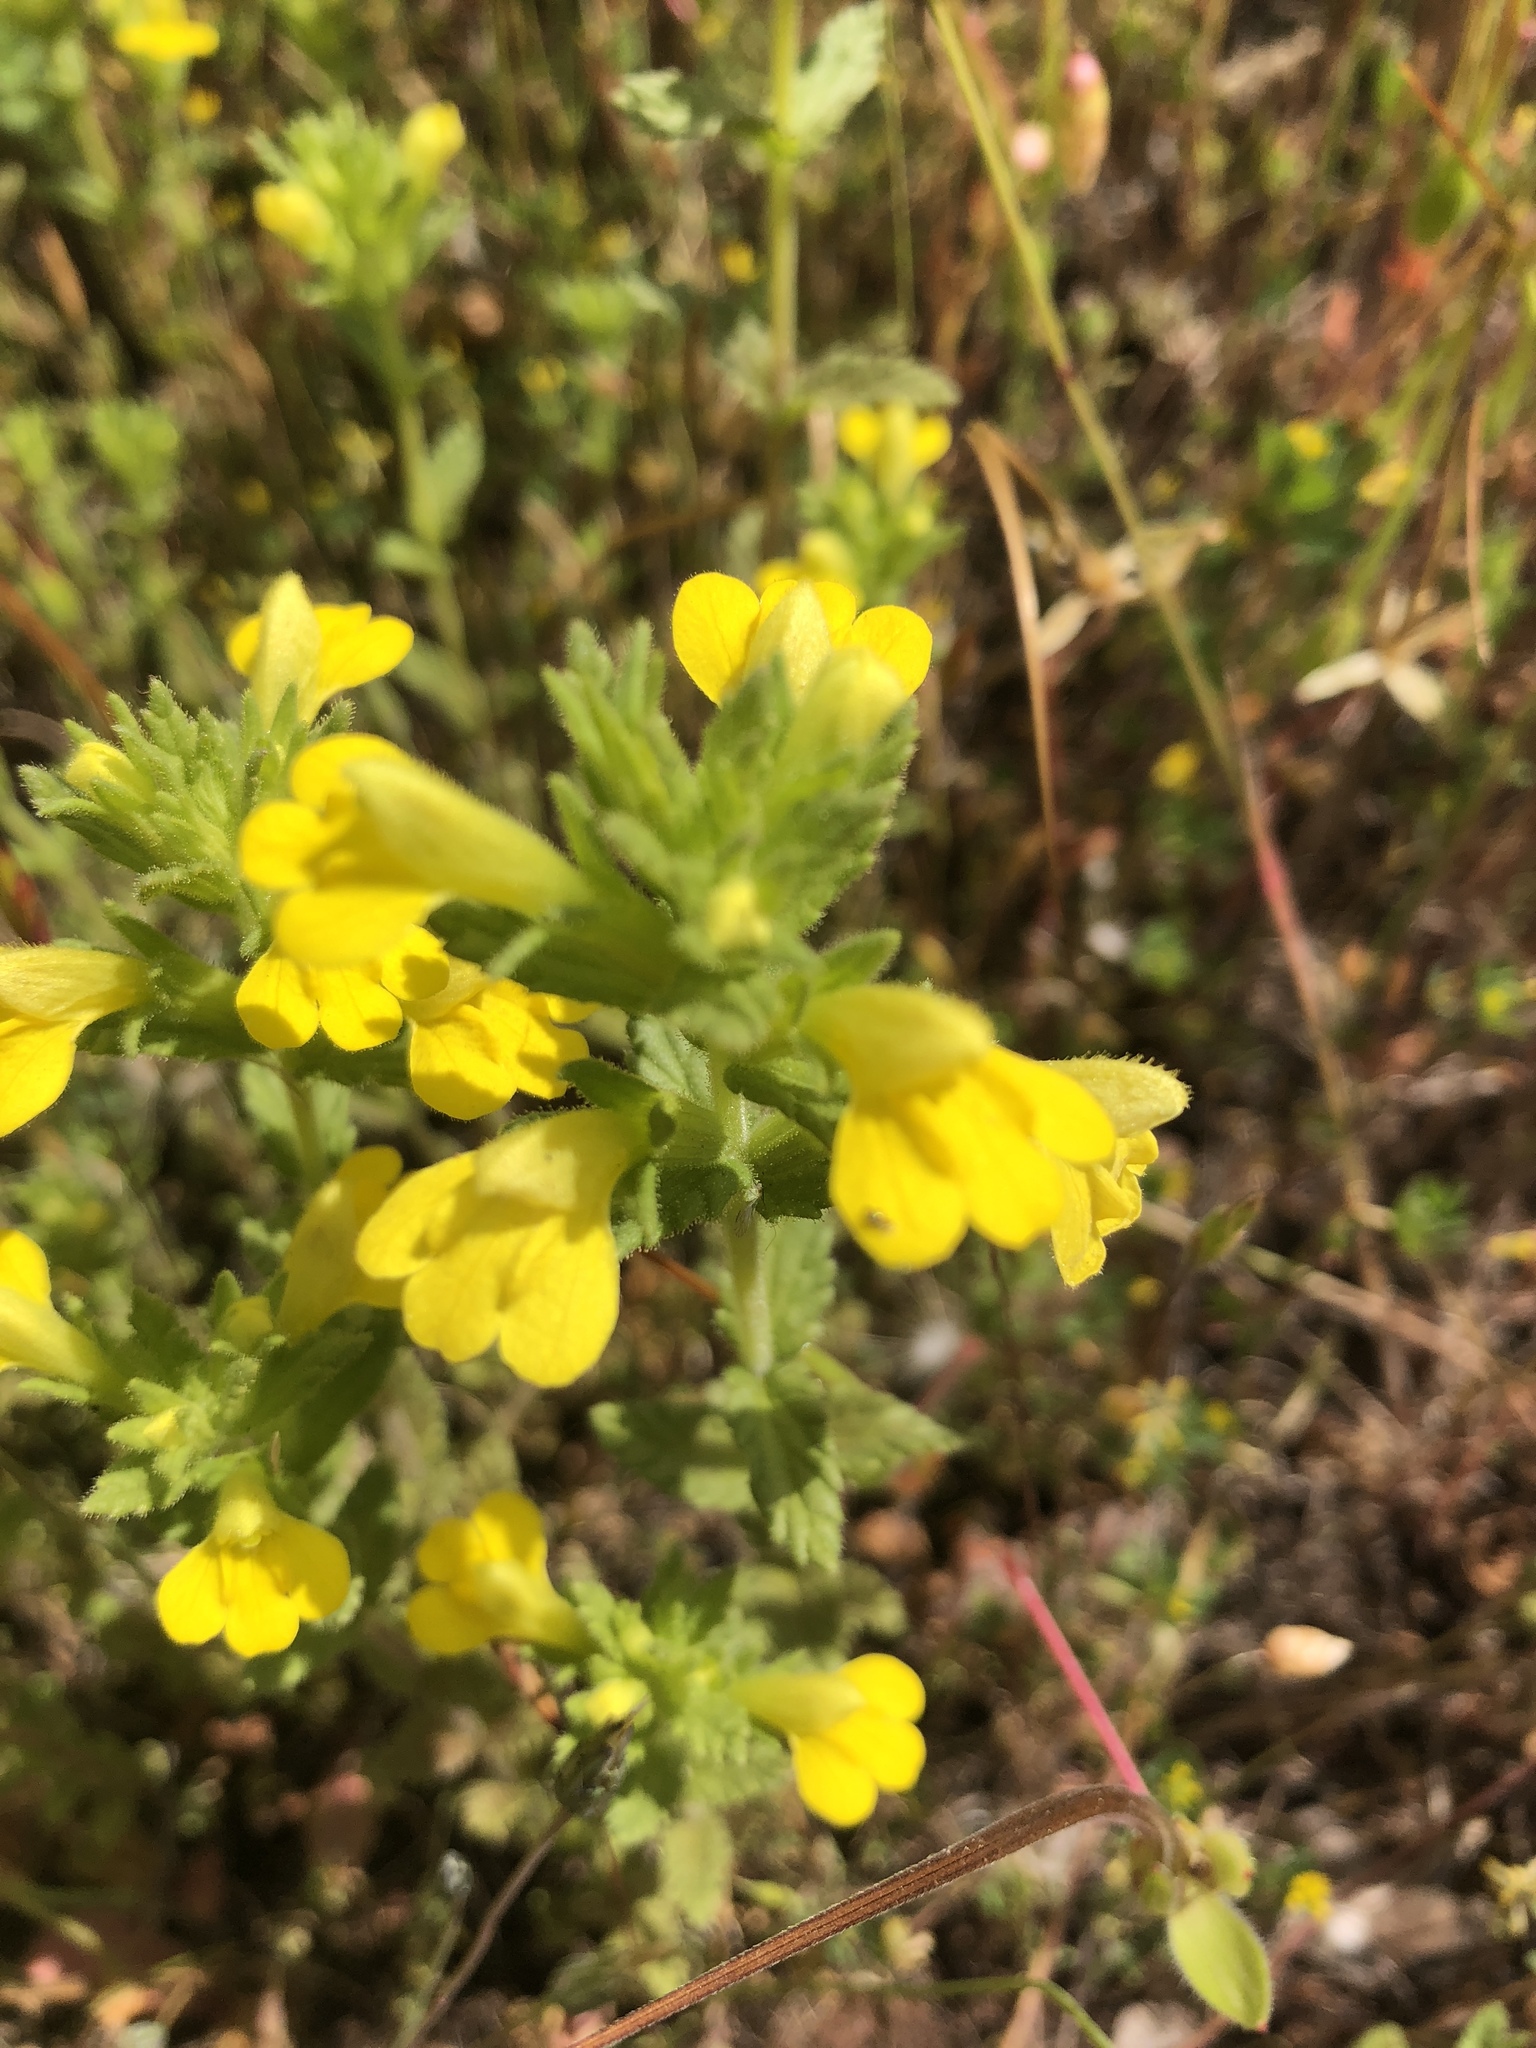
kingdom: Plantae
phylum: Tracheophyta
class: Magnoliopsida
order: Lamiales
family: Orobanchaceae
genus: Bellardia
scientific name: Bellardia viscosa
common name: Sticky parentucellia
